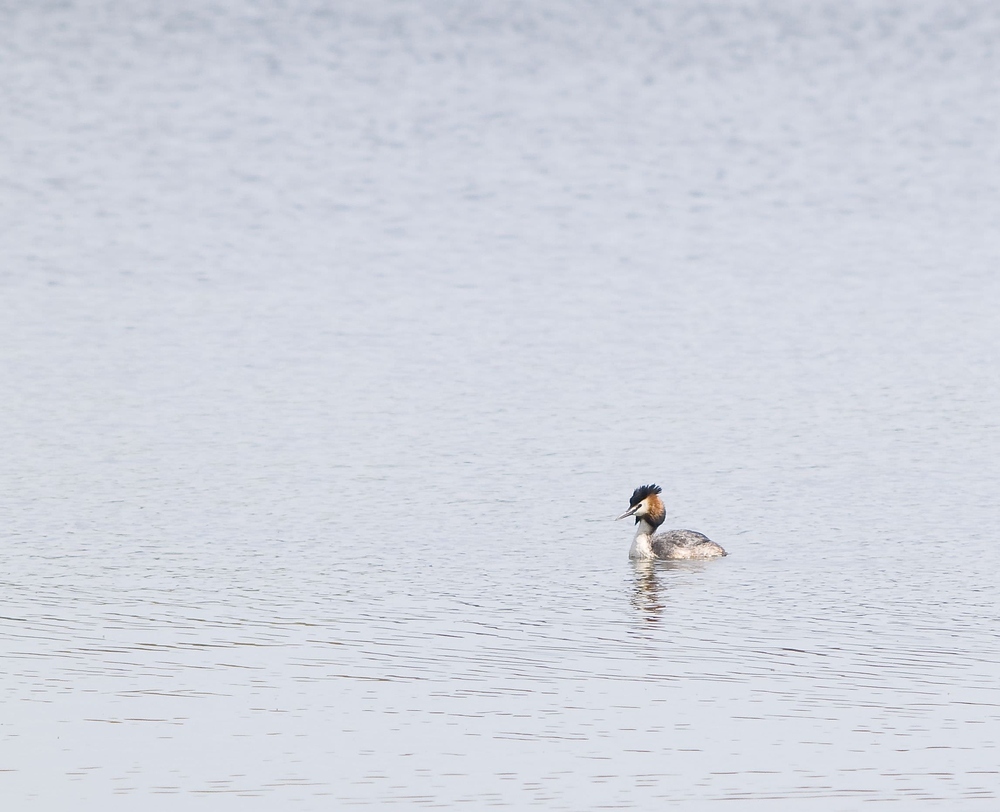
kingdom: Animalia
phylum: Chordata
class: Aves
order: Podicipediformes
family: Podicipedidae
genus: Podiceps
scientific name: Podiceps cristatus
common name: Great crested grebe
